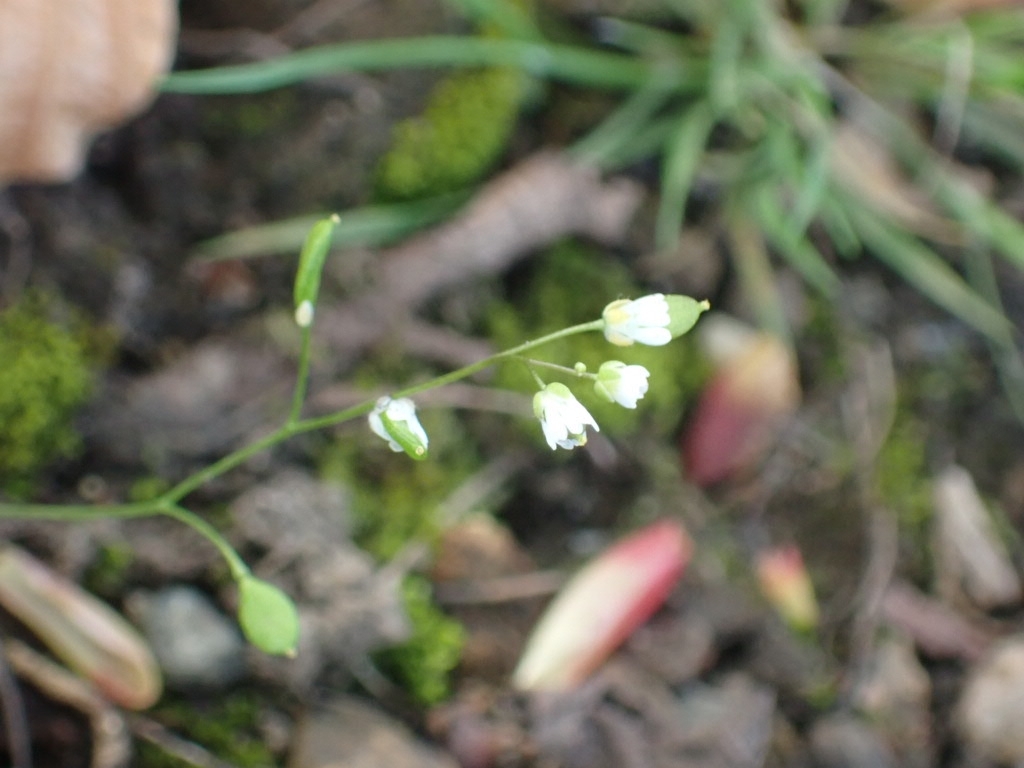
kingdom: Plantae
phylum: Tracheophyta
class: Magnoliopsida
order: Brassicales
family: Brassicaceae
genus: Draba
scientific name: Draba verna
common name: Spring draba
